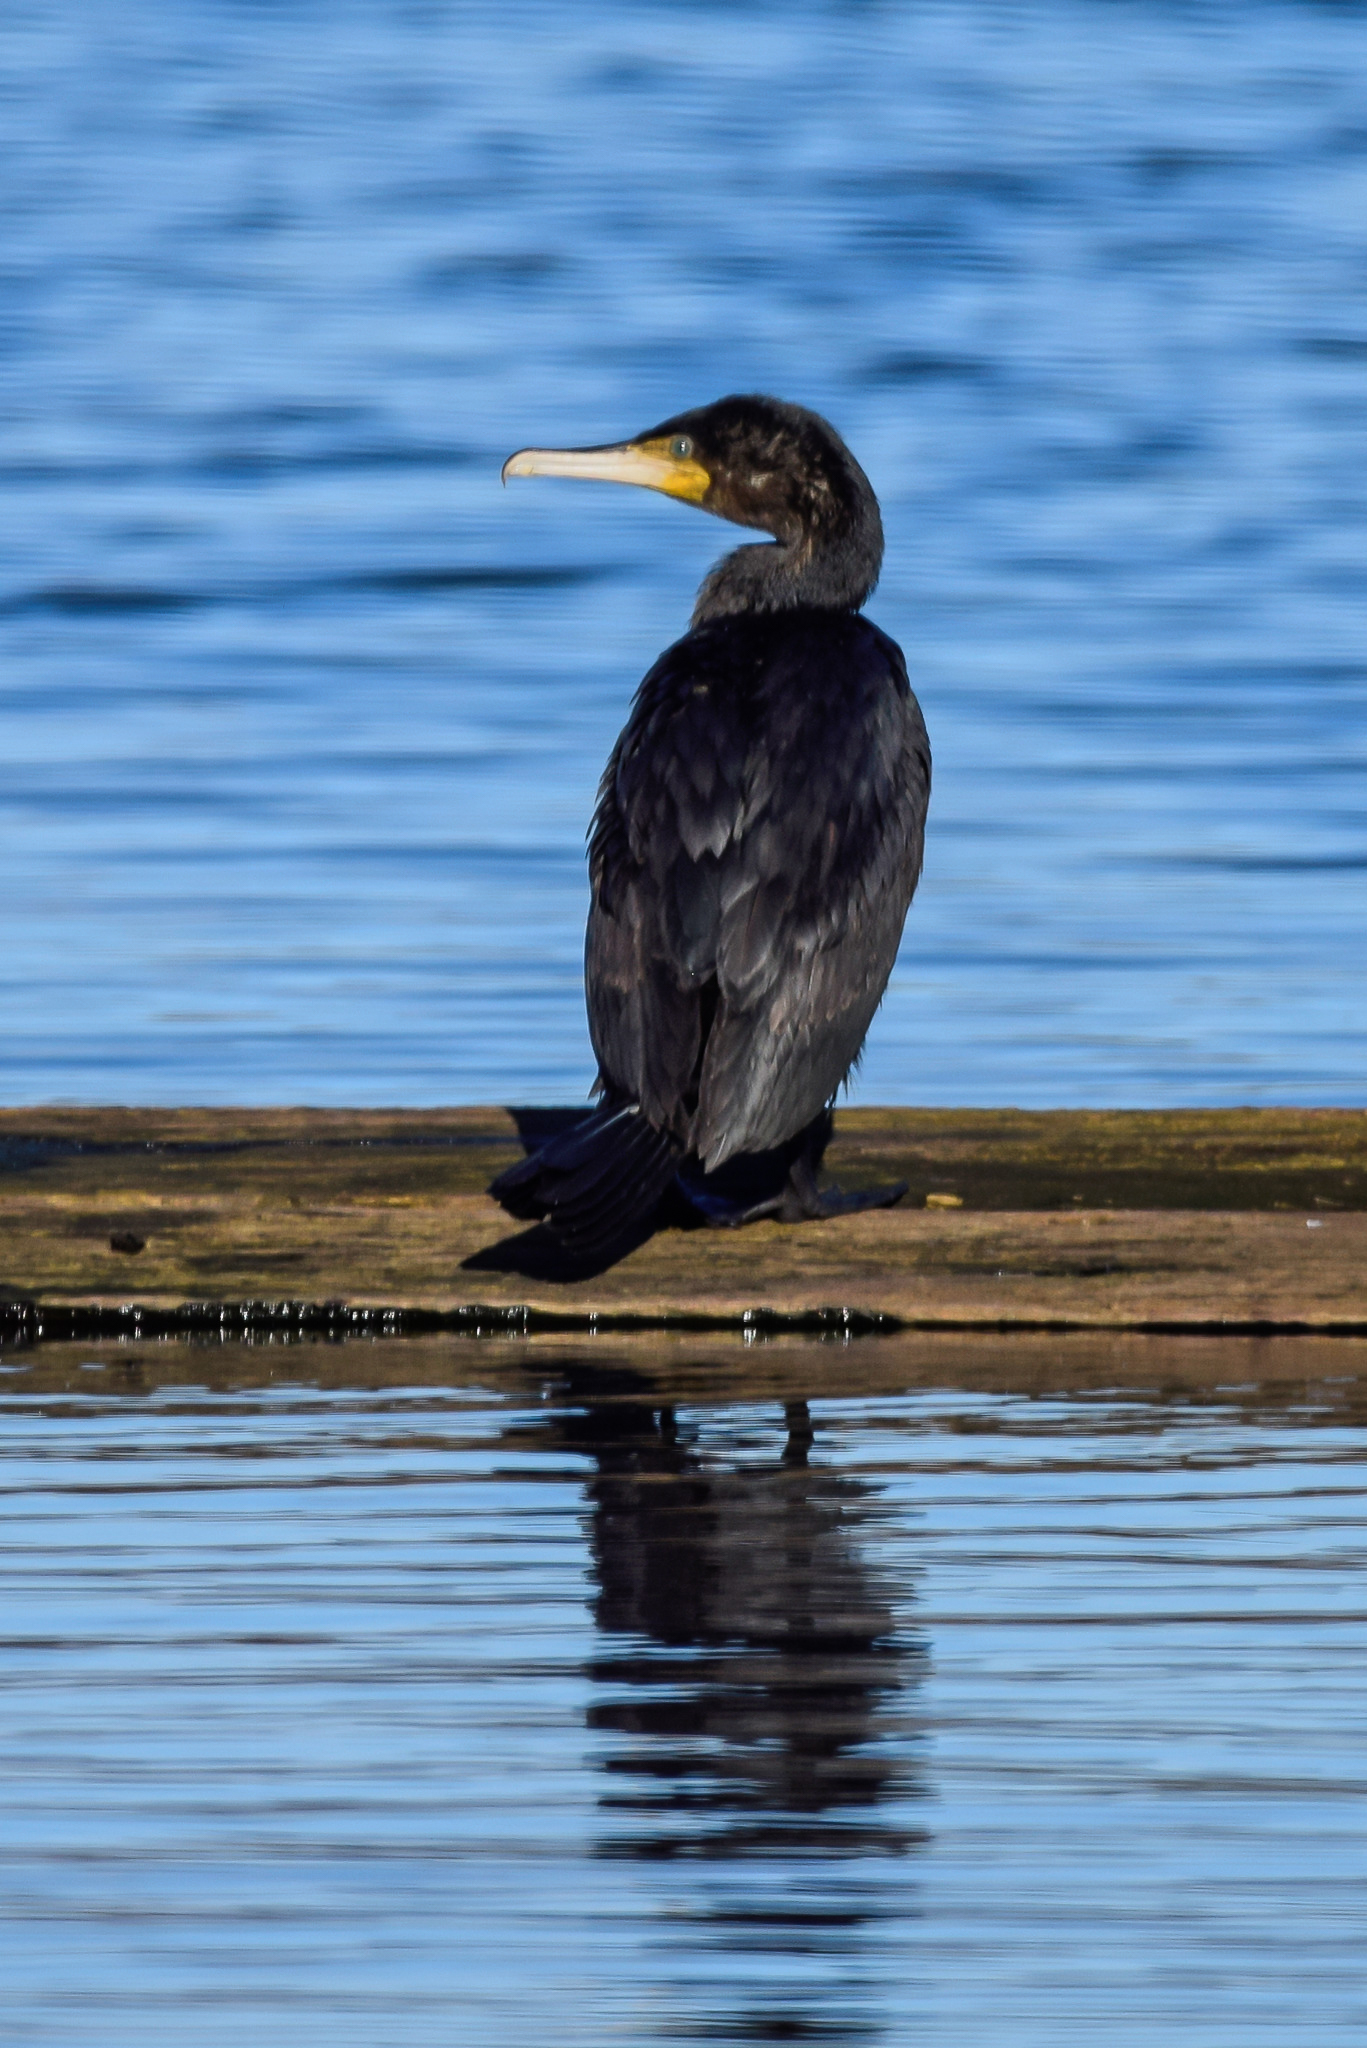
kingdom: Animalia
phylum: Chordata
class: Aves
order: Suliformes
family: Phalacrocoracidae
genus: Phalacrocorax
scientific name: Phalacrocorax carbo
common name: Great cormorant
